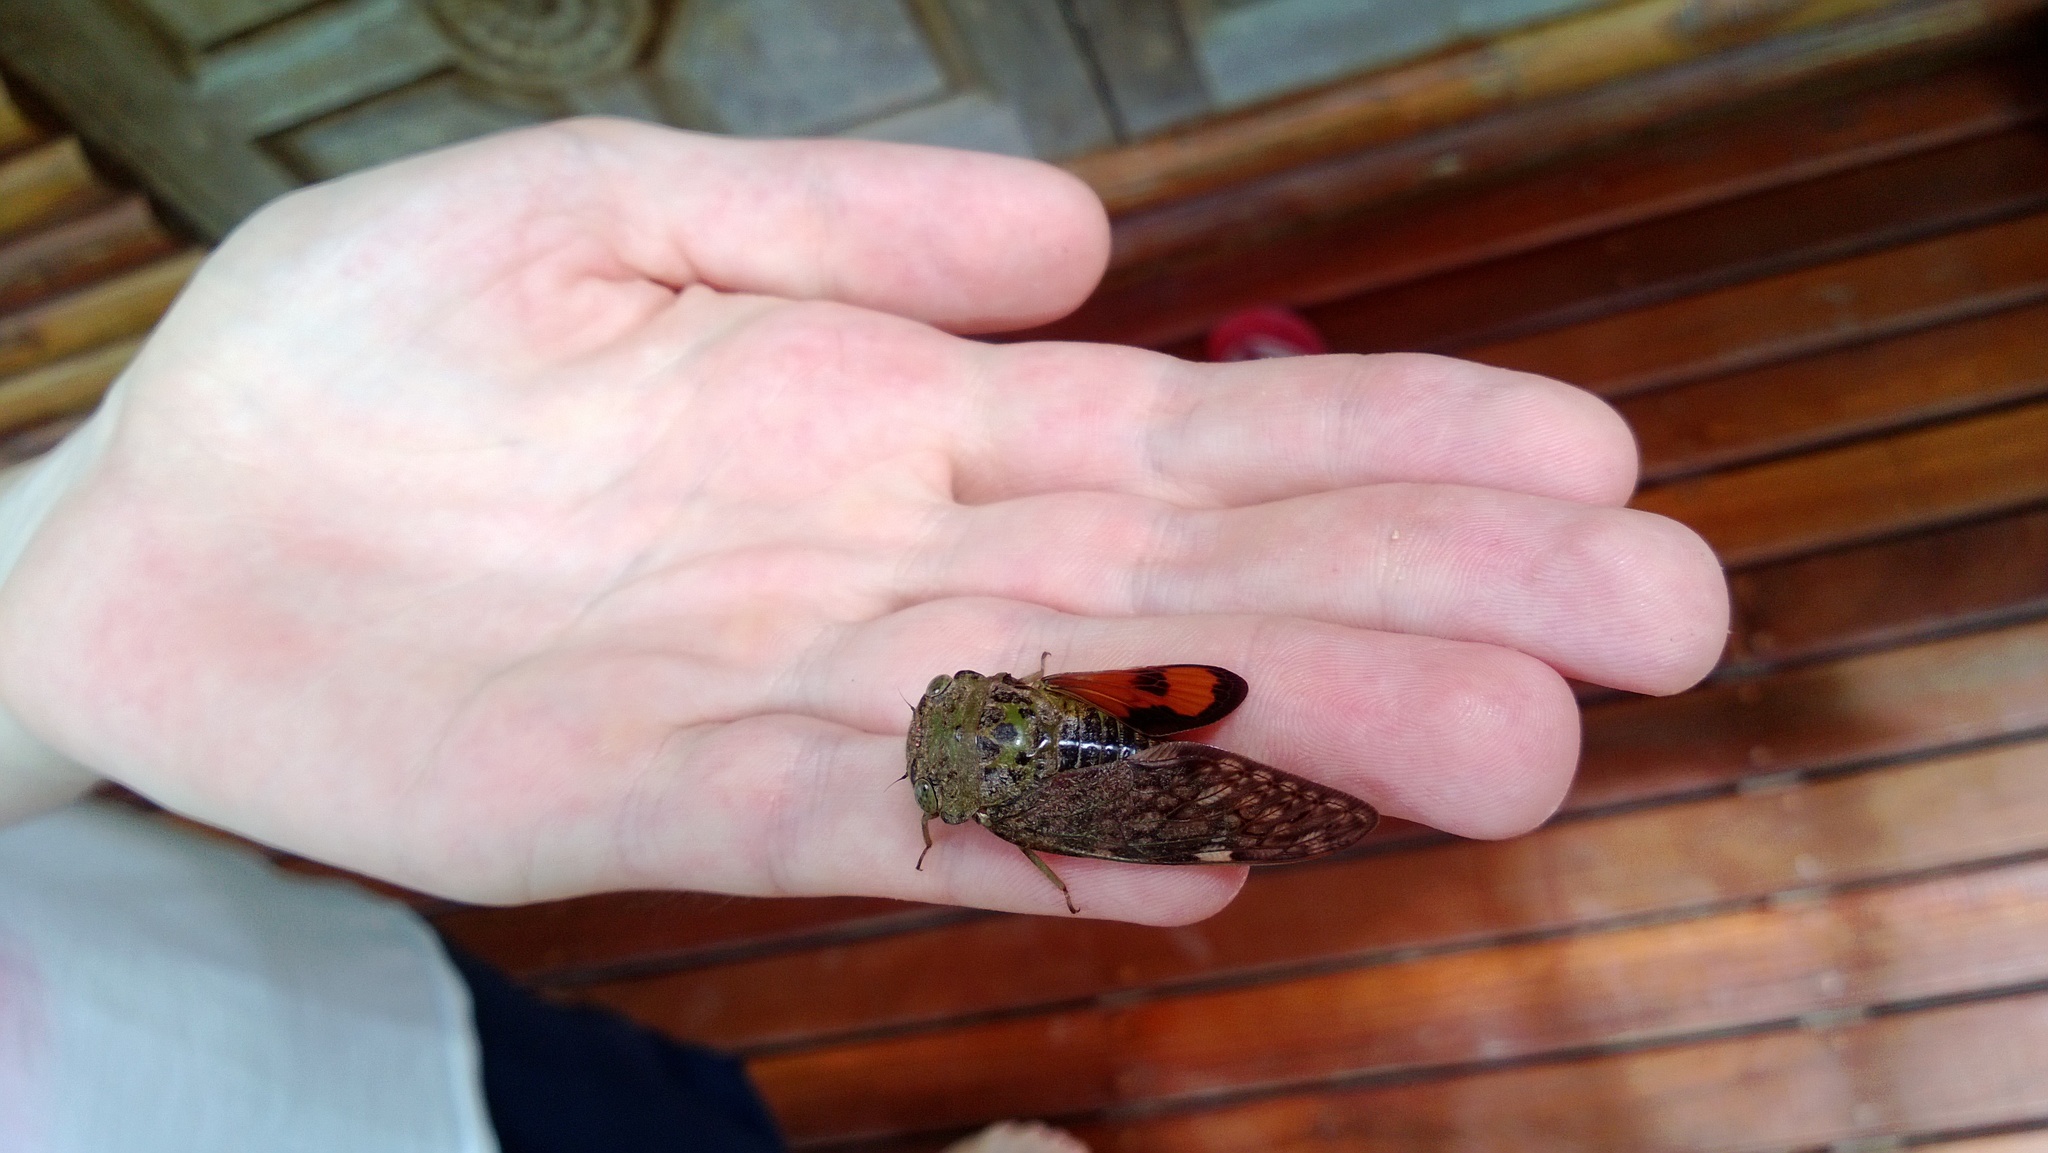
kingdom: Animalia
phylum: Arthropoda
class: Insecta
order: Hemiptera
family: Cicadidae
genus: Platypleura
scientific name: Platypleura mira
